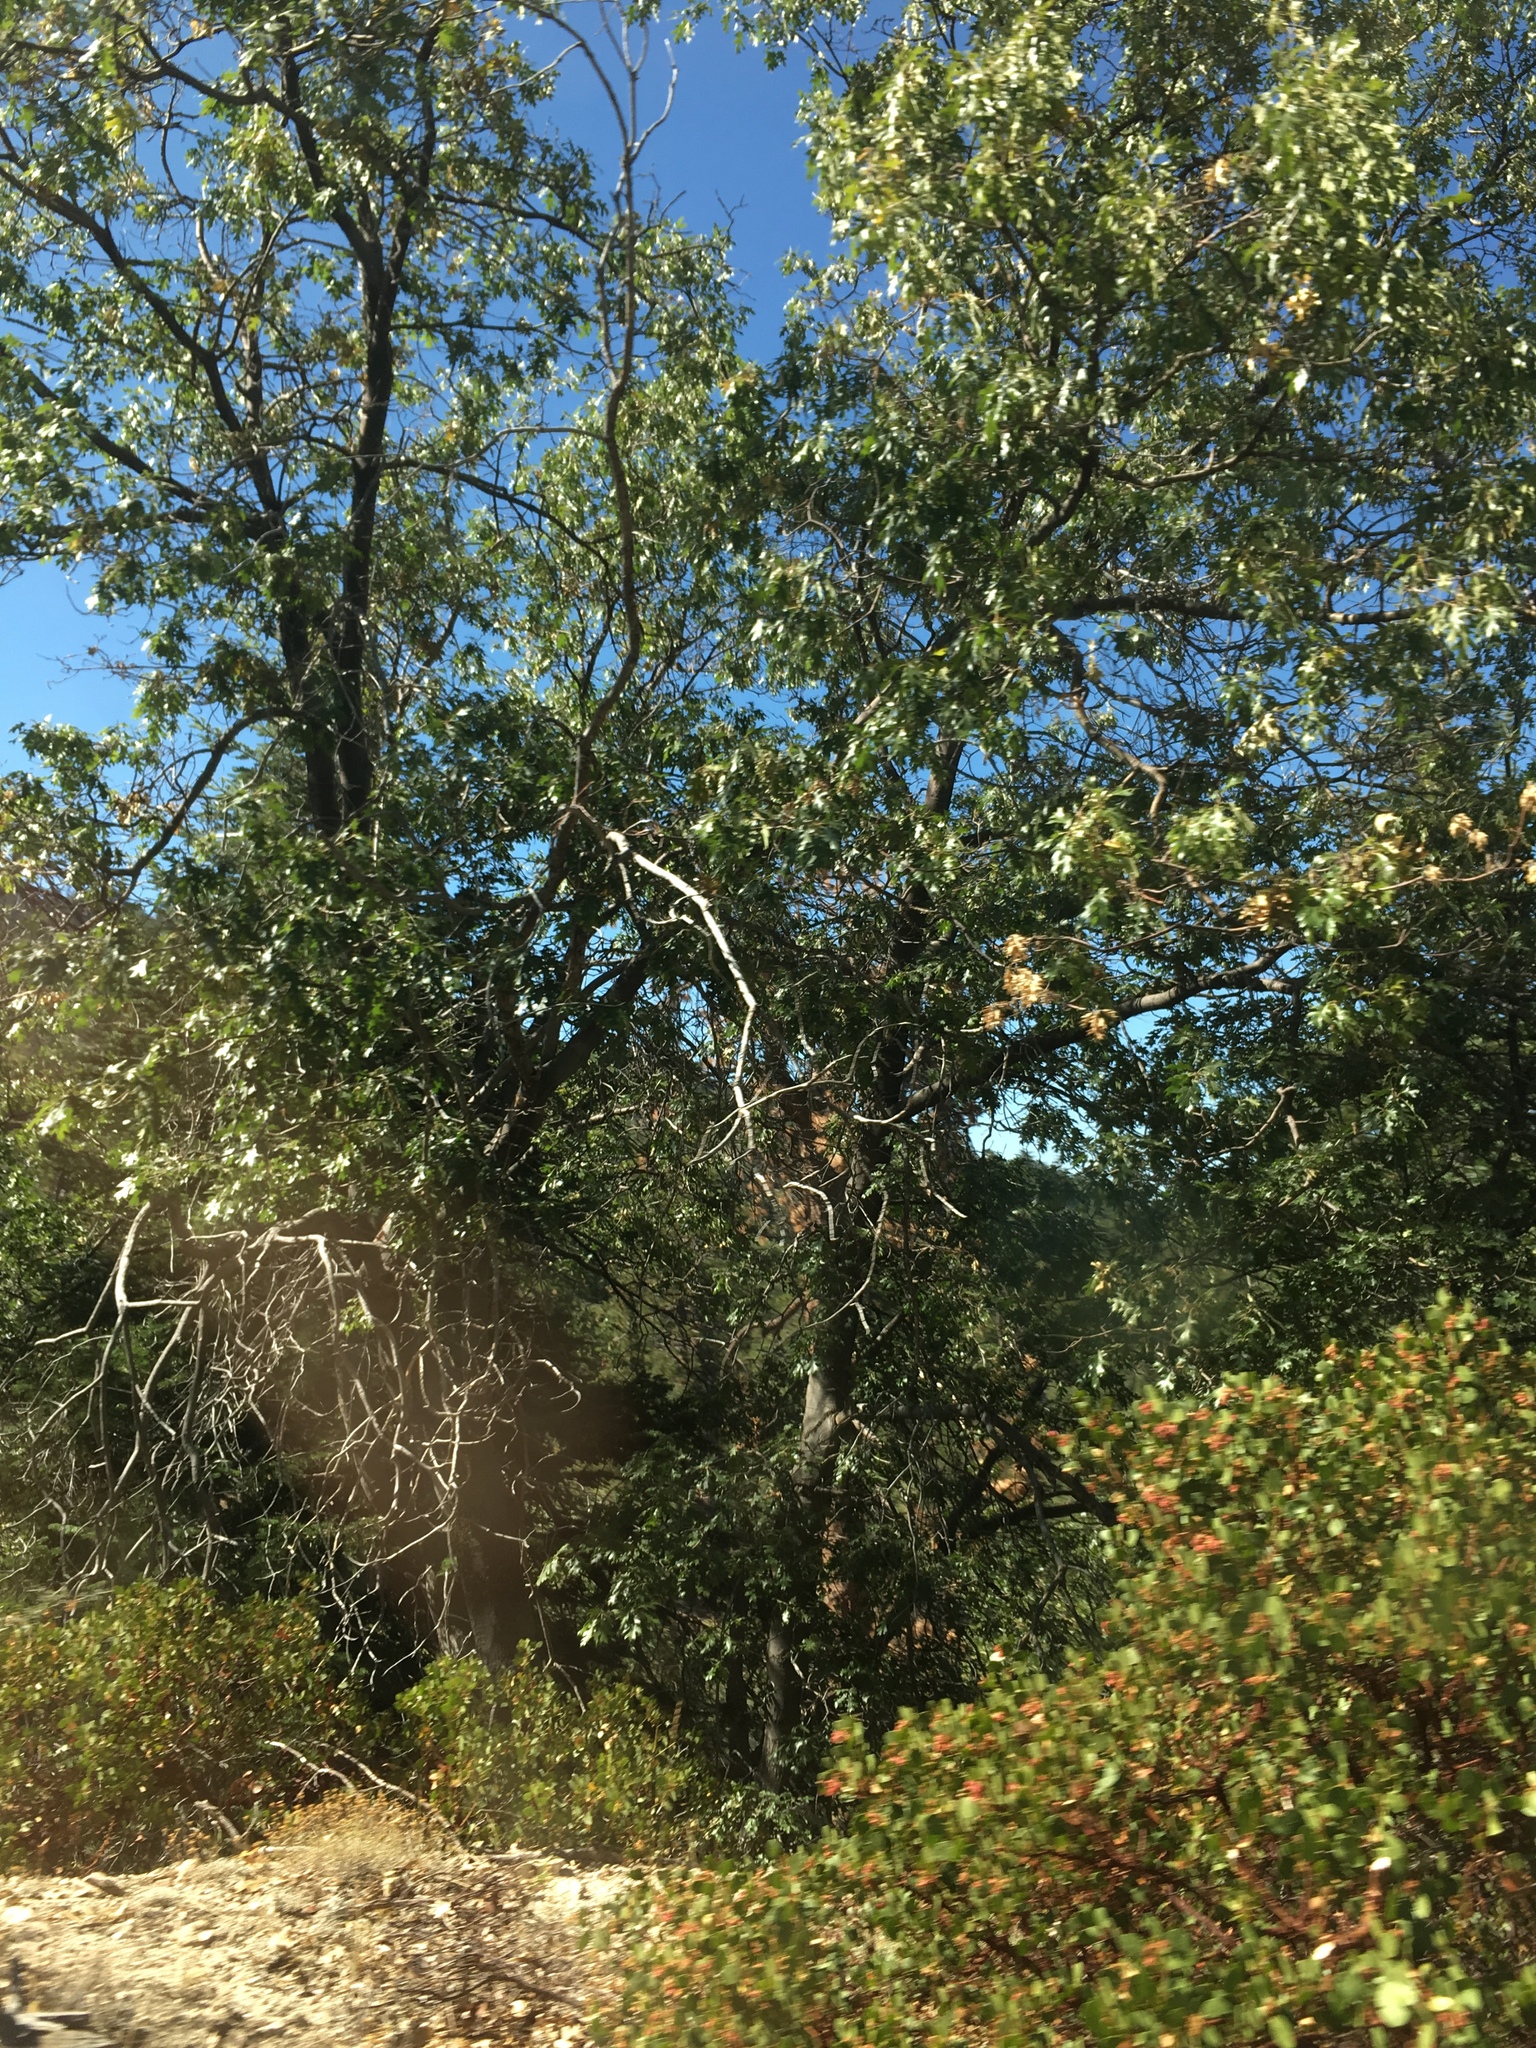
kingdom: Plantae
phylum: Tracheophyta
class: Magnoliopsida
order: Fagales
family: Fagaceae
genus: Quercus
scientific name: Quercus kelloggii
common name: California black oak
